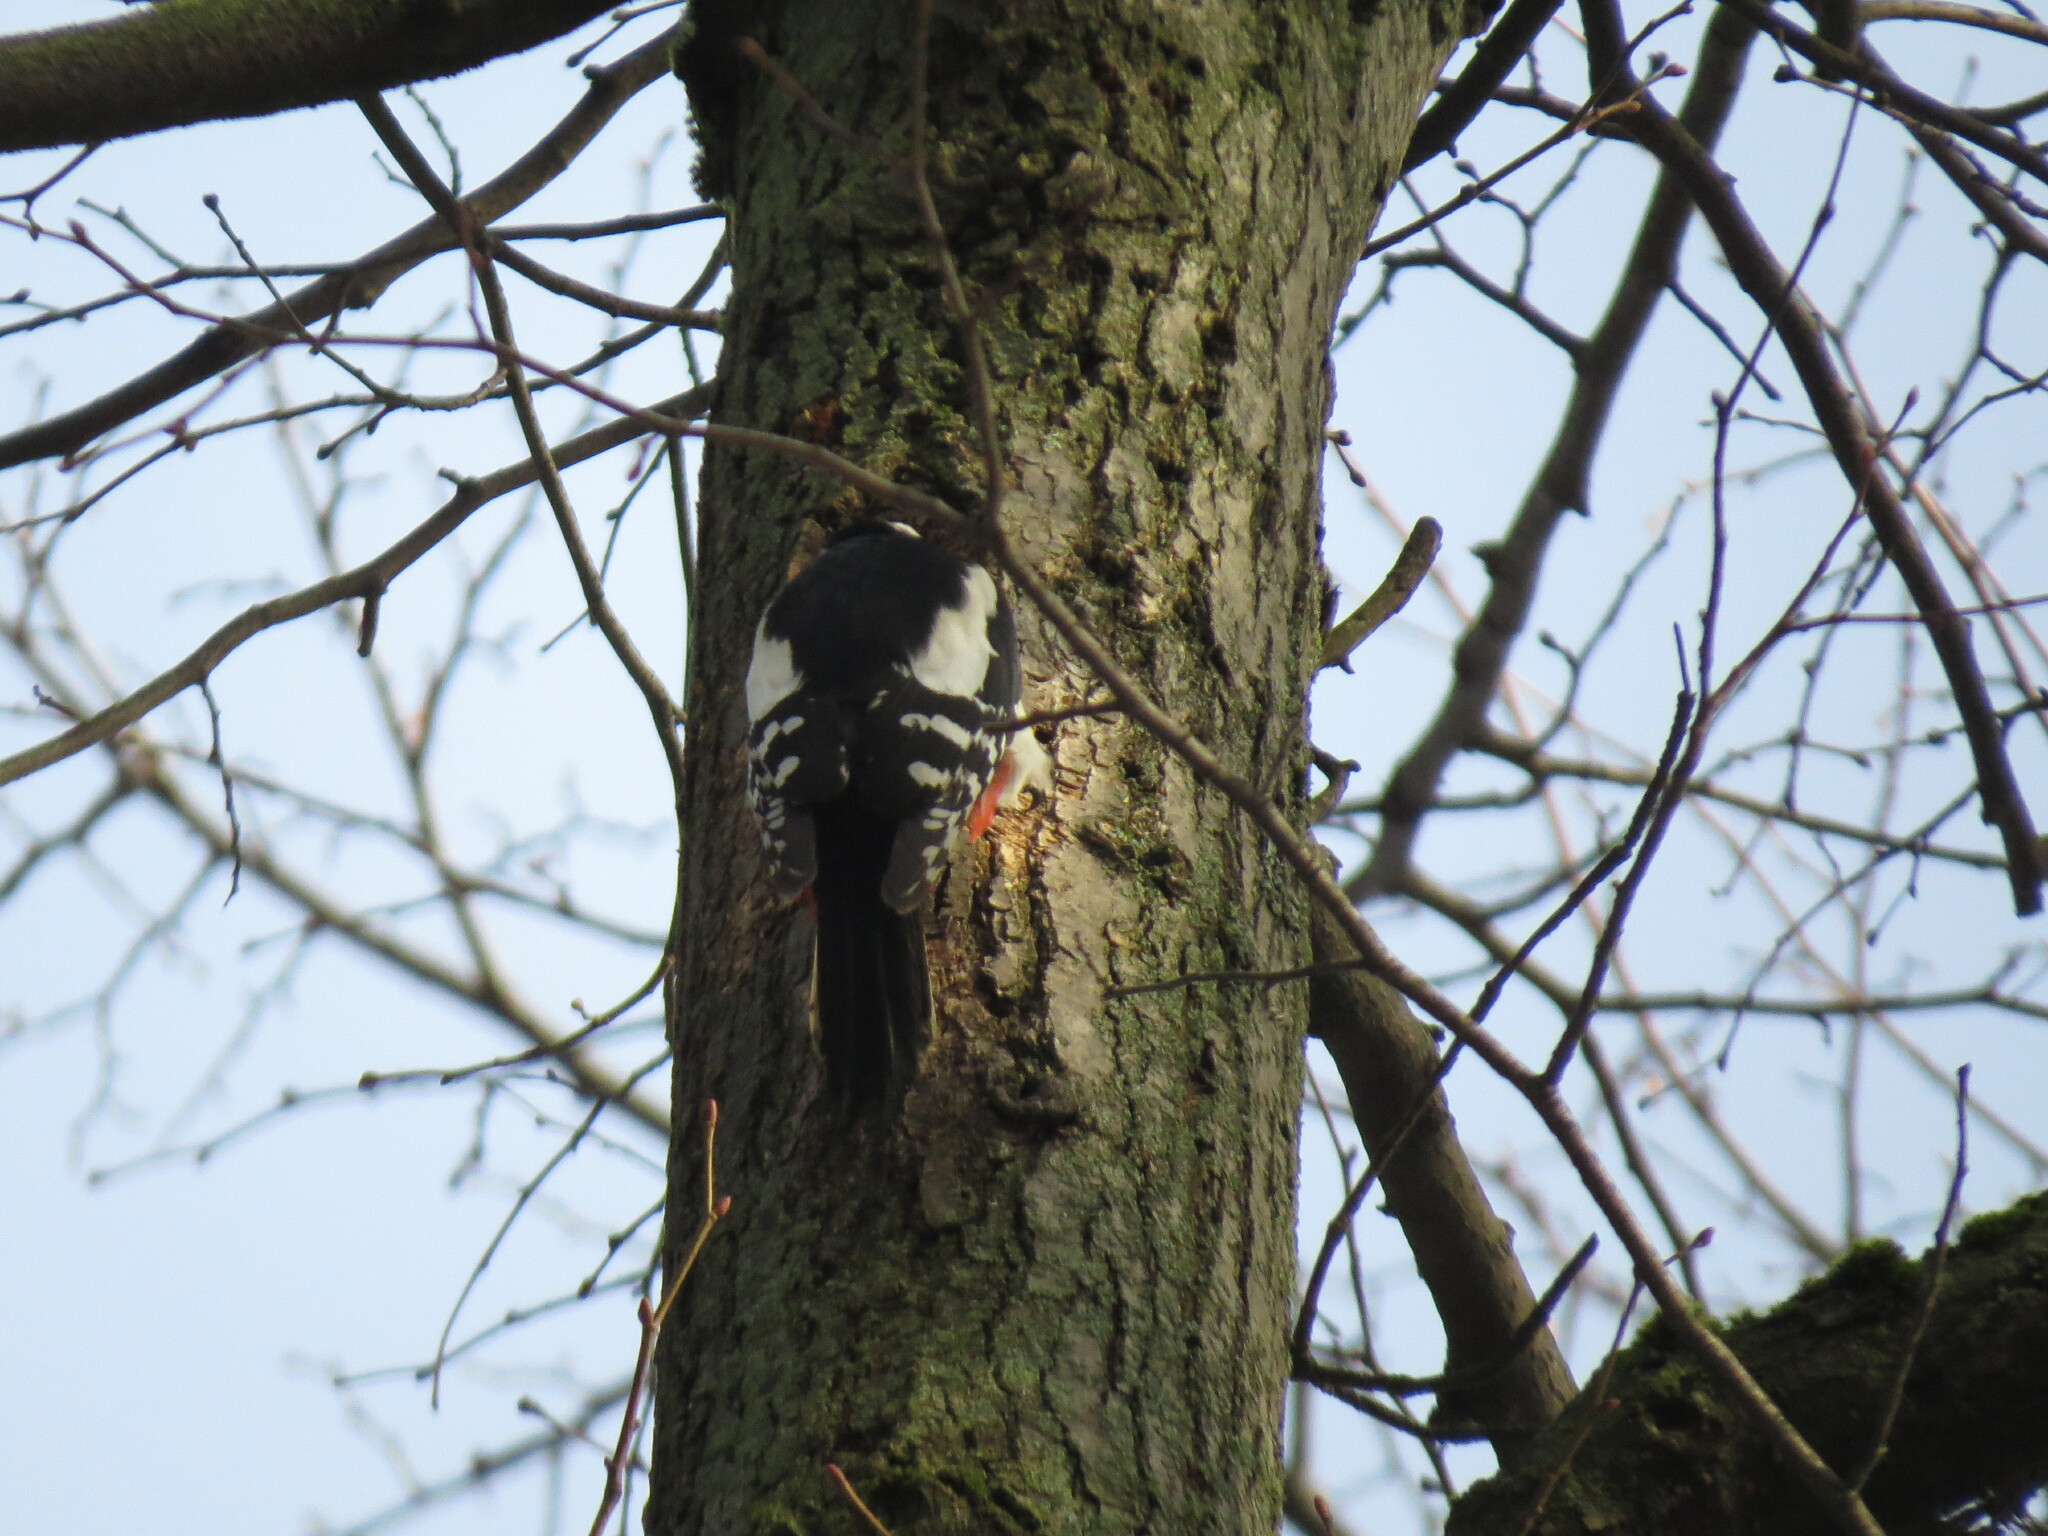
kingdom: Animalia
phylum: Chordata
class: Aves
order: Piciformes
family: Picidae
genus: Dendrocopos
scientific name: Dendrocopos major
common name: Great spotted woodpecker
